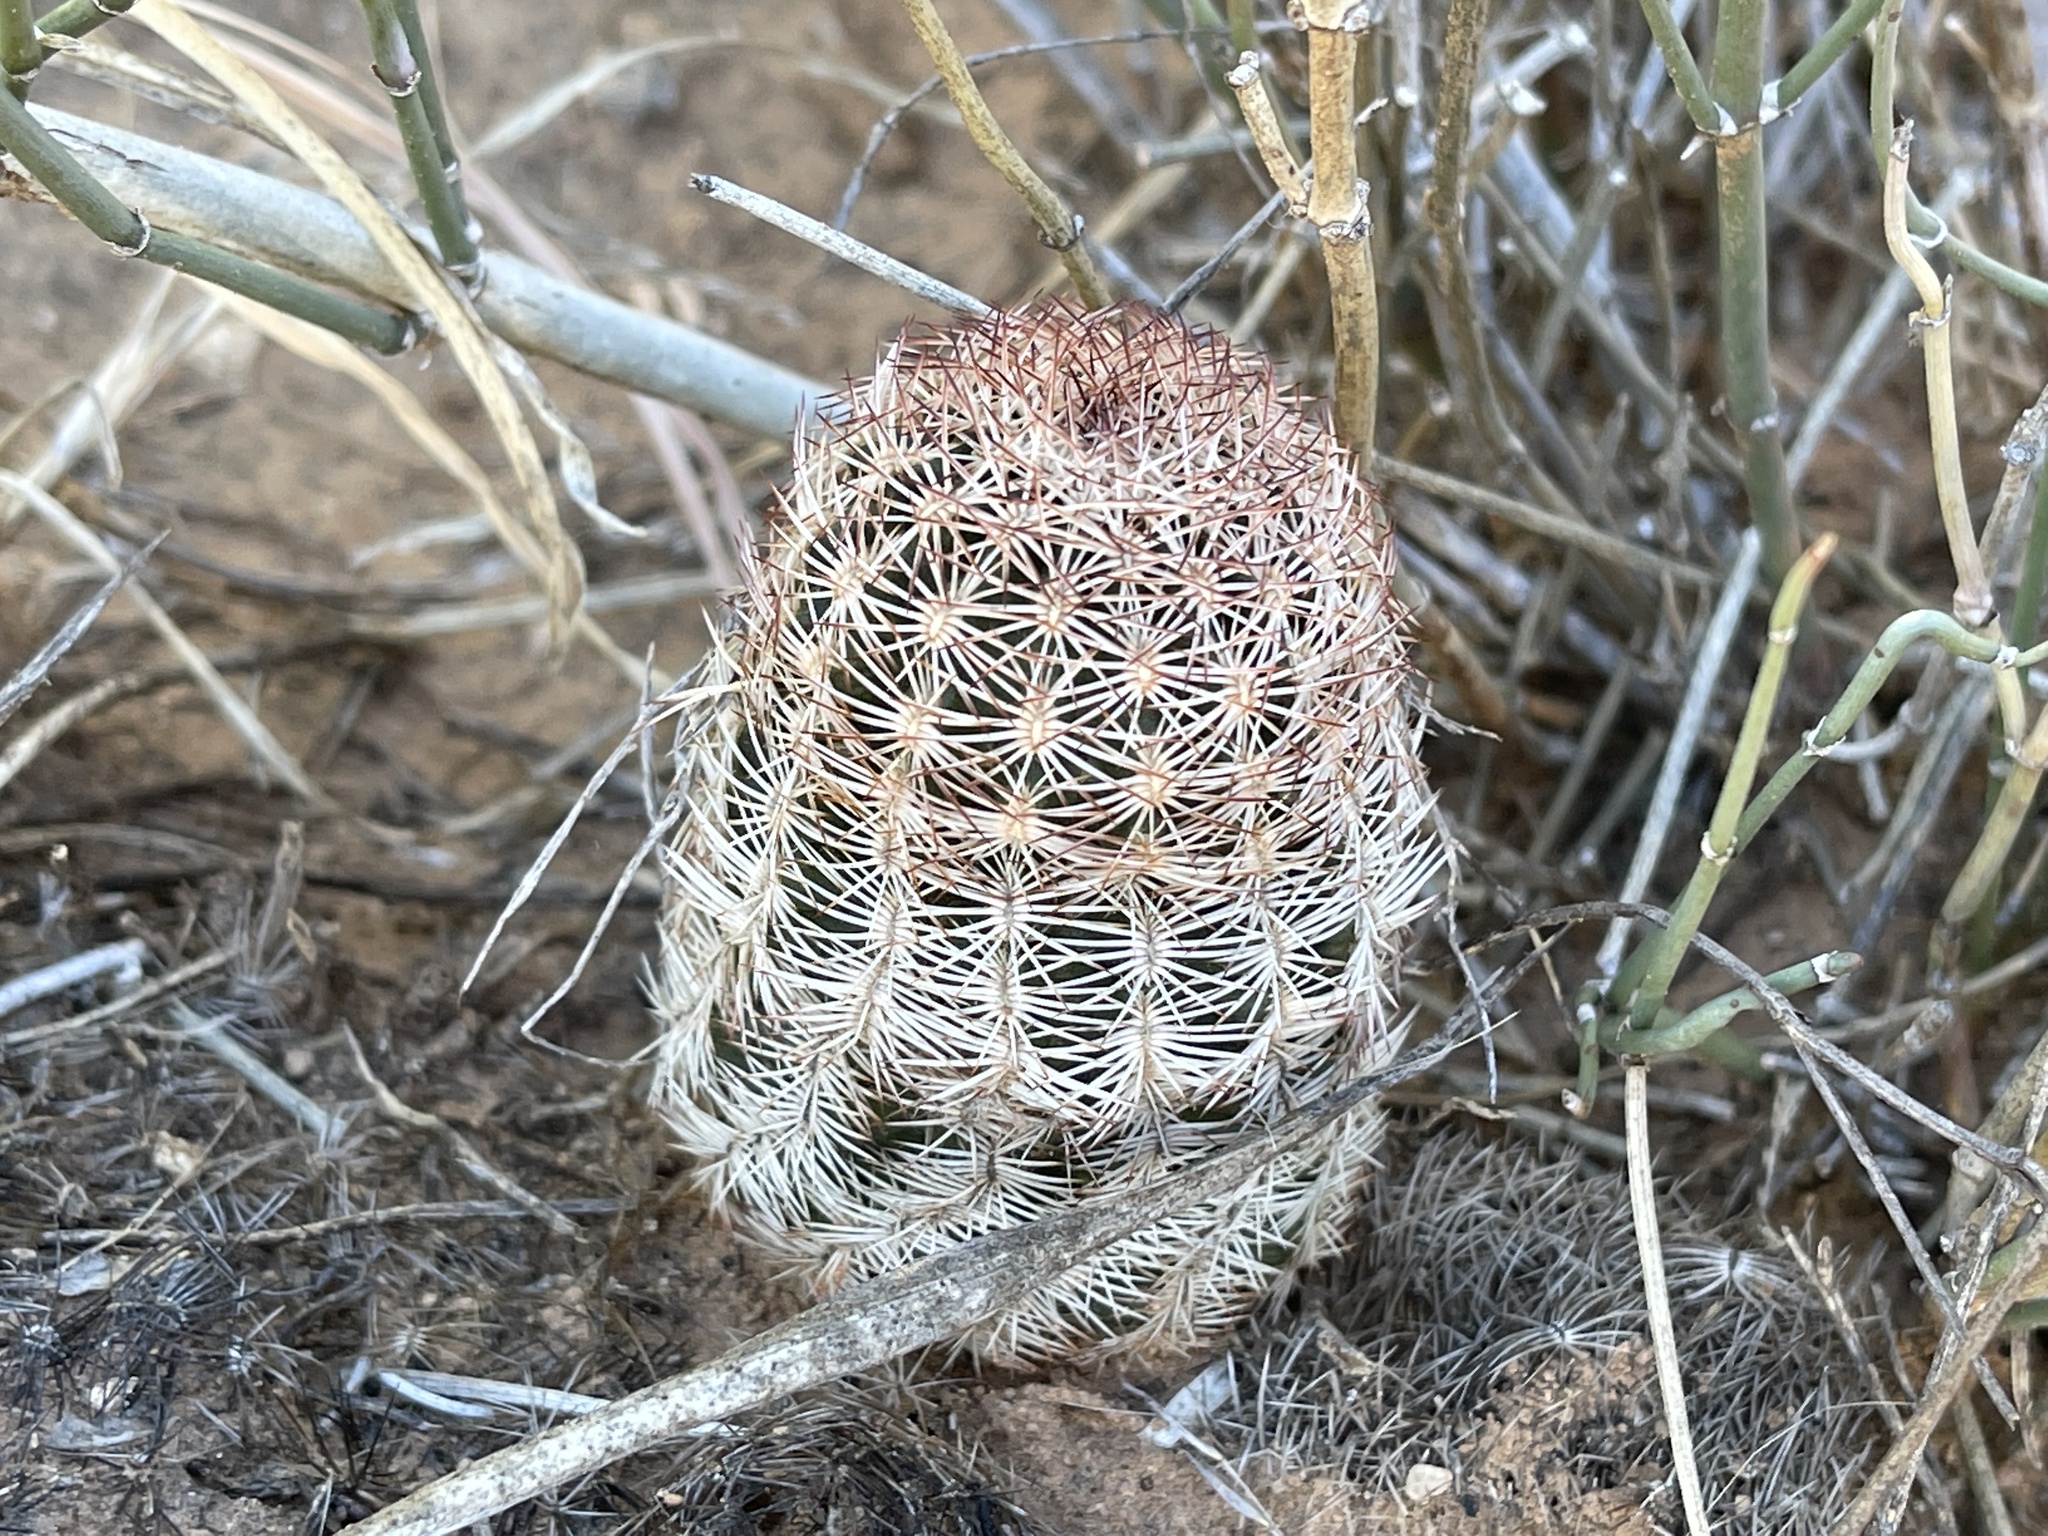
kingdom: Plantae
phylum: Tracheophyta
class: Magnoliopsida
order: Caryophyllales
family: Cactaceae
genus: Echinocereus
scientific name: Echinocereus reichenbachii
